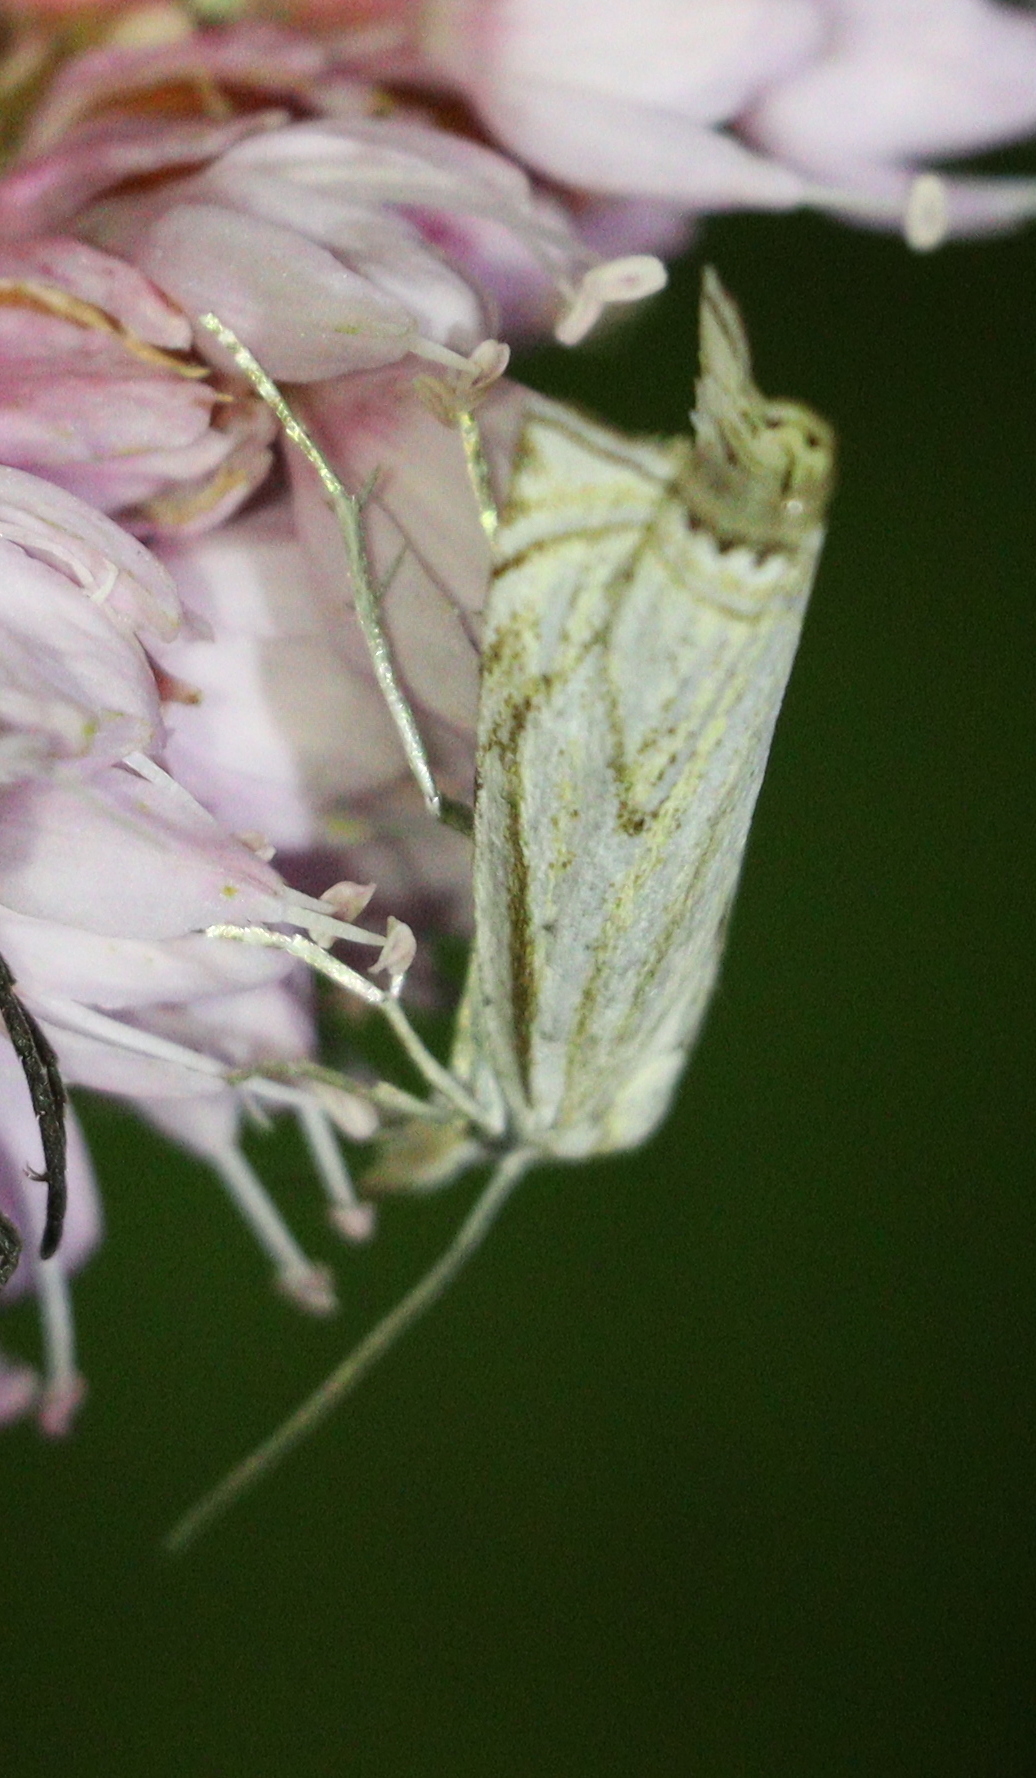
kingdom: Animalia
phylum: Arthropoda
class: Insecta
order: Lepidoptera
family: Crambidae
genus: Crambus
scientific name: Crambus nemorella
